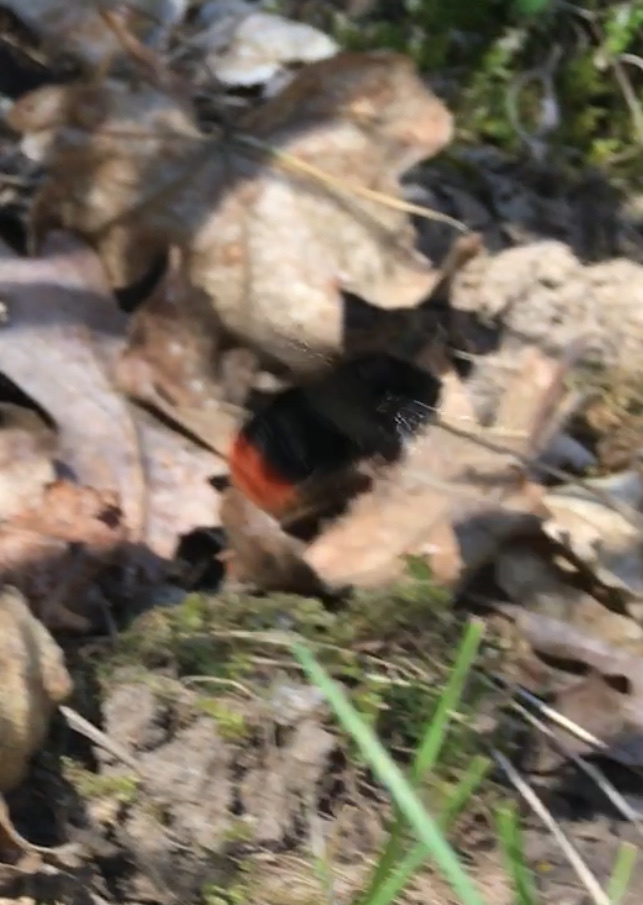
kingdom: Animalia
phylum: Arthropoda
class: Insecta
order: Hymenoptera
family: Apidae
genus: Bombus
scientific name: Bombus lapidarius
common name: Large red-tailed humble-bee
